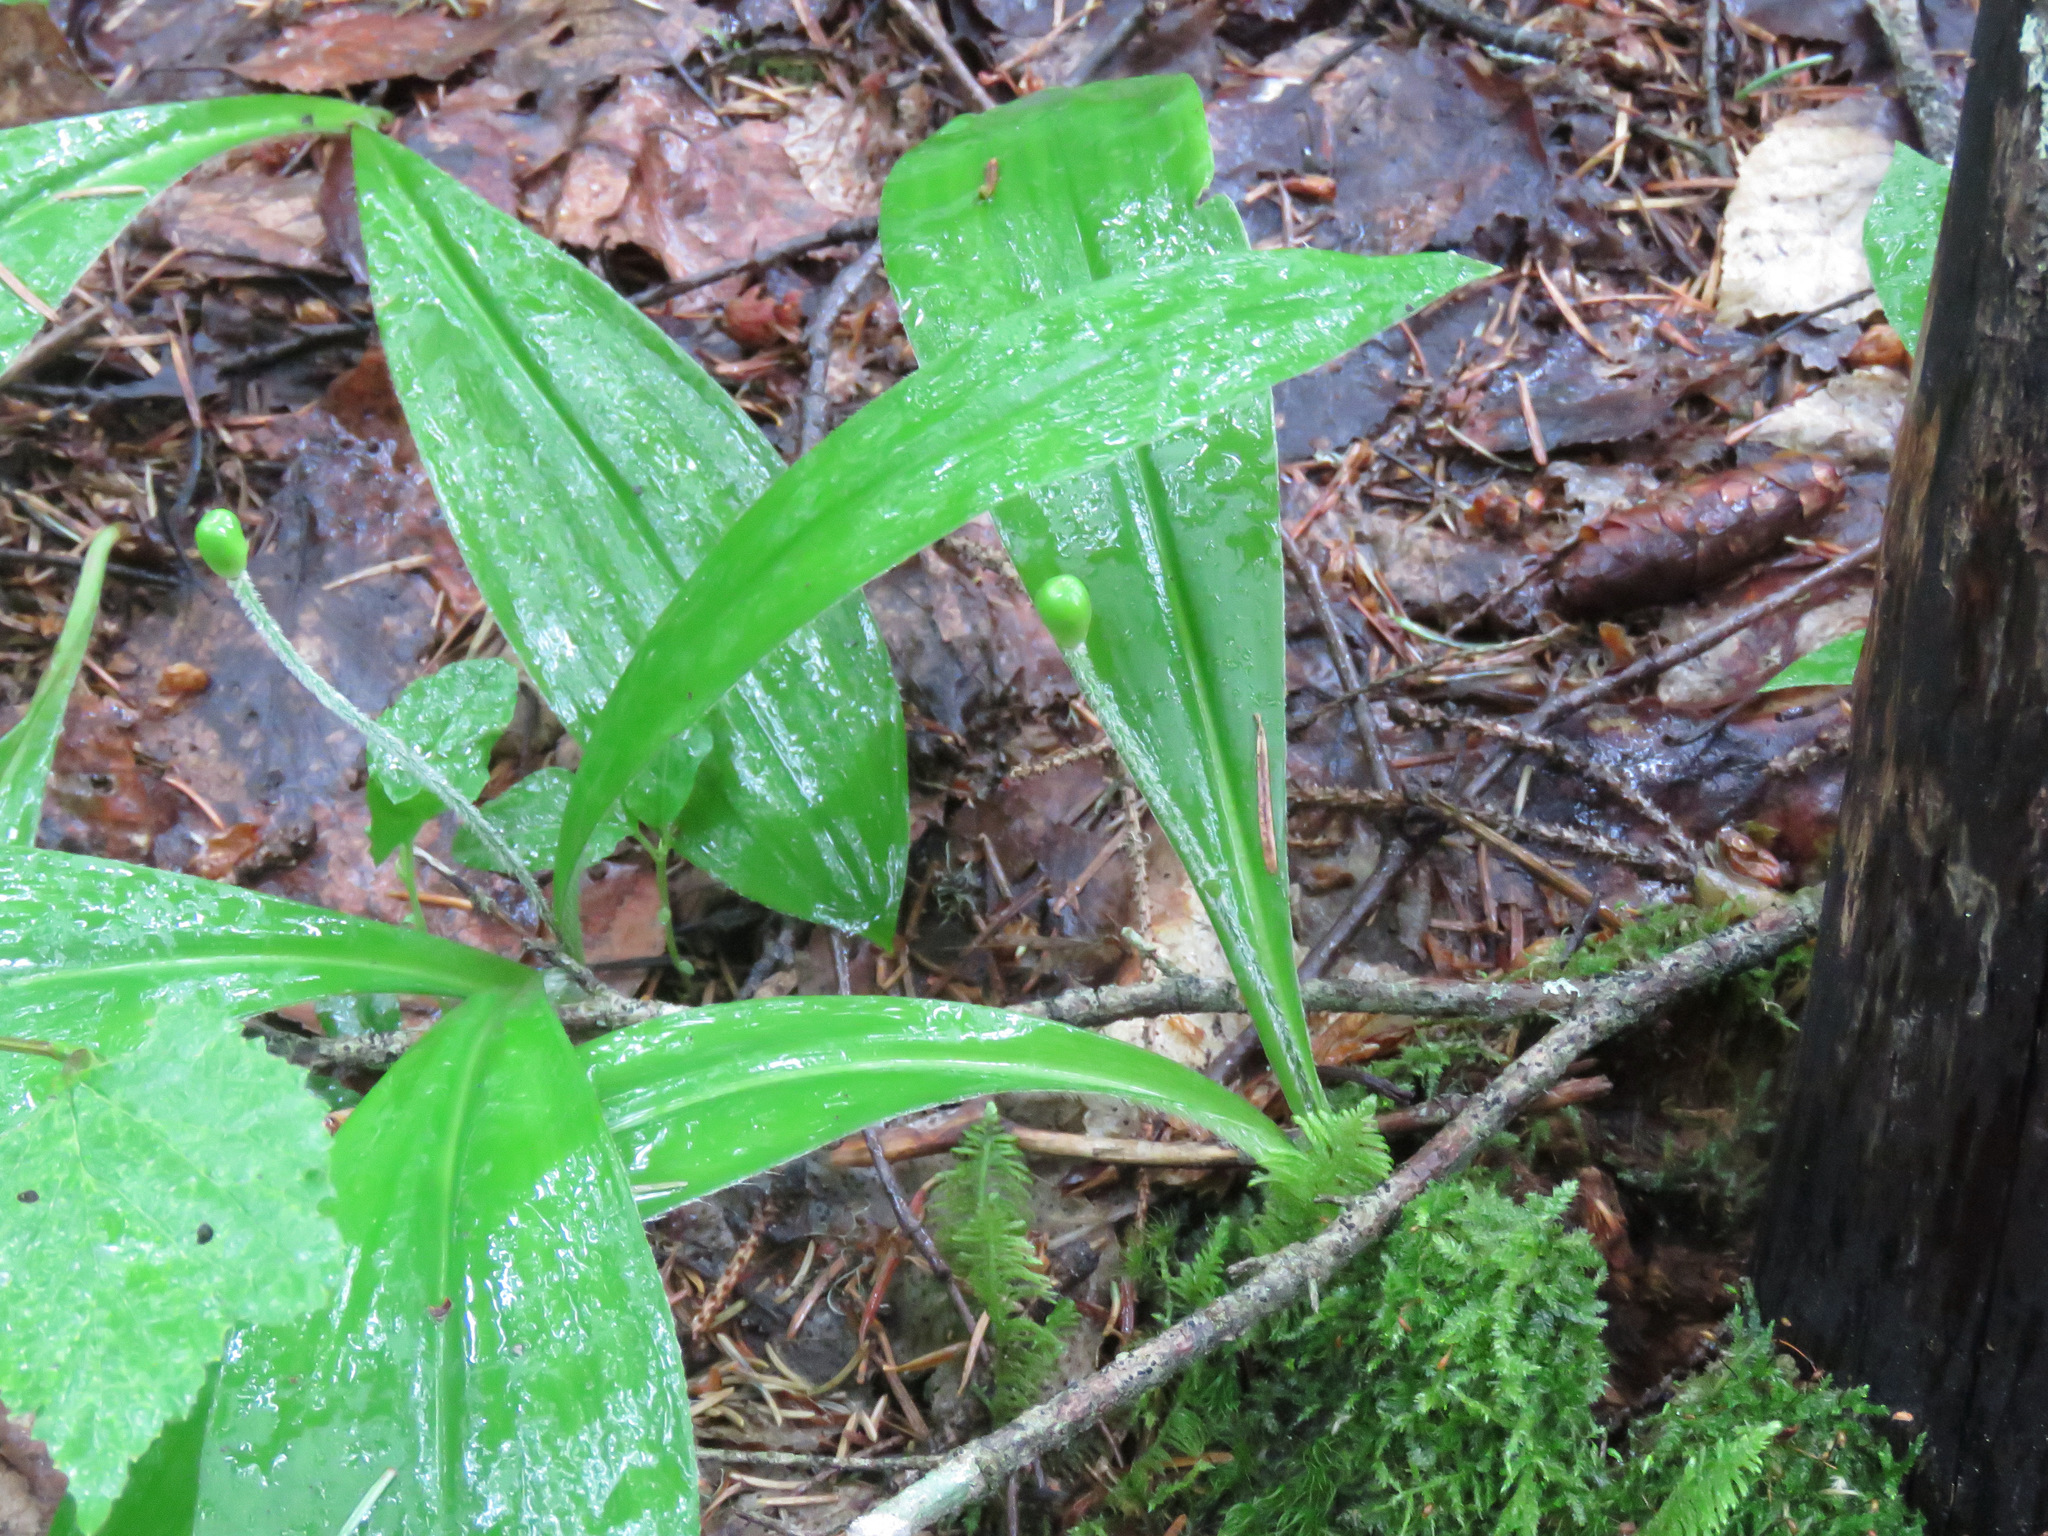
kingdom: Plantae
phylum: Tracheophyta
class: Liliopsida
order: Liliales
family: Liliaceae
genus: Clintonia
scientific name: Clintonia uniflora
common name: Queen's cup
